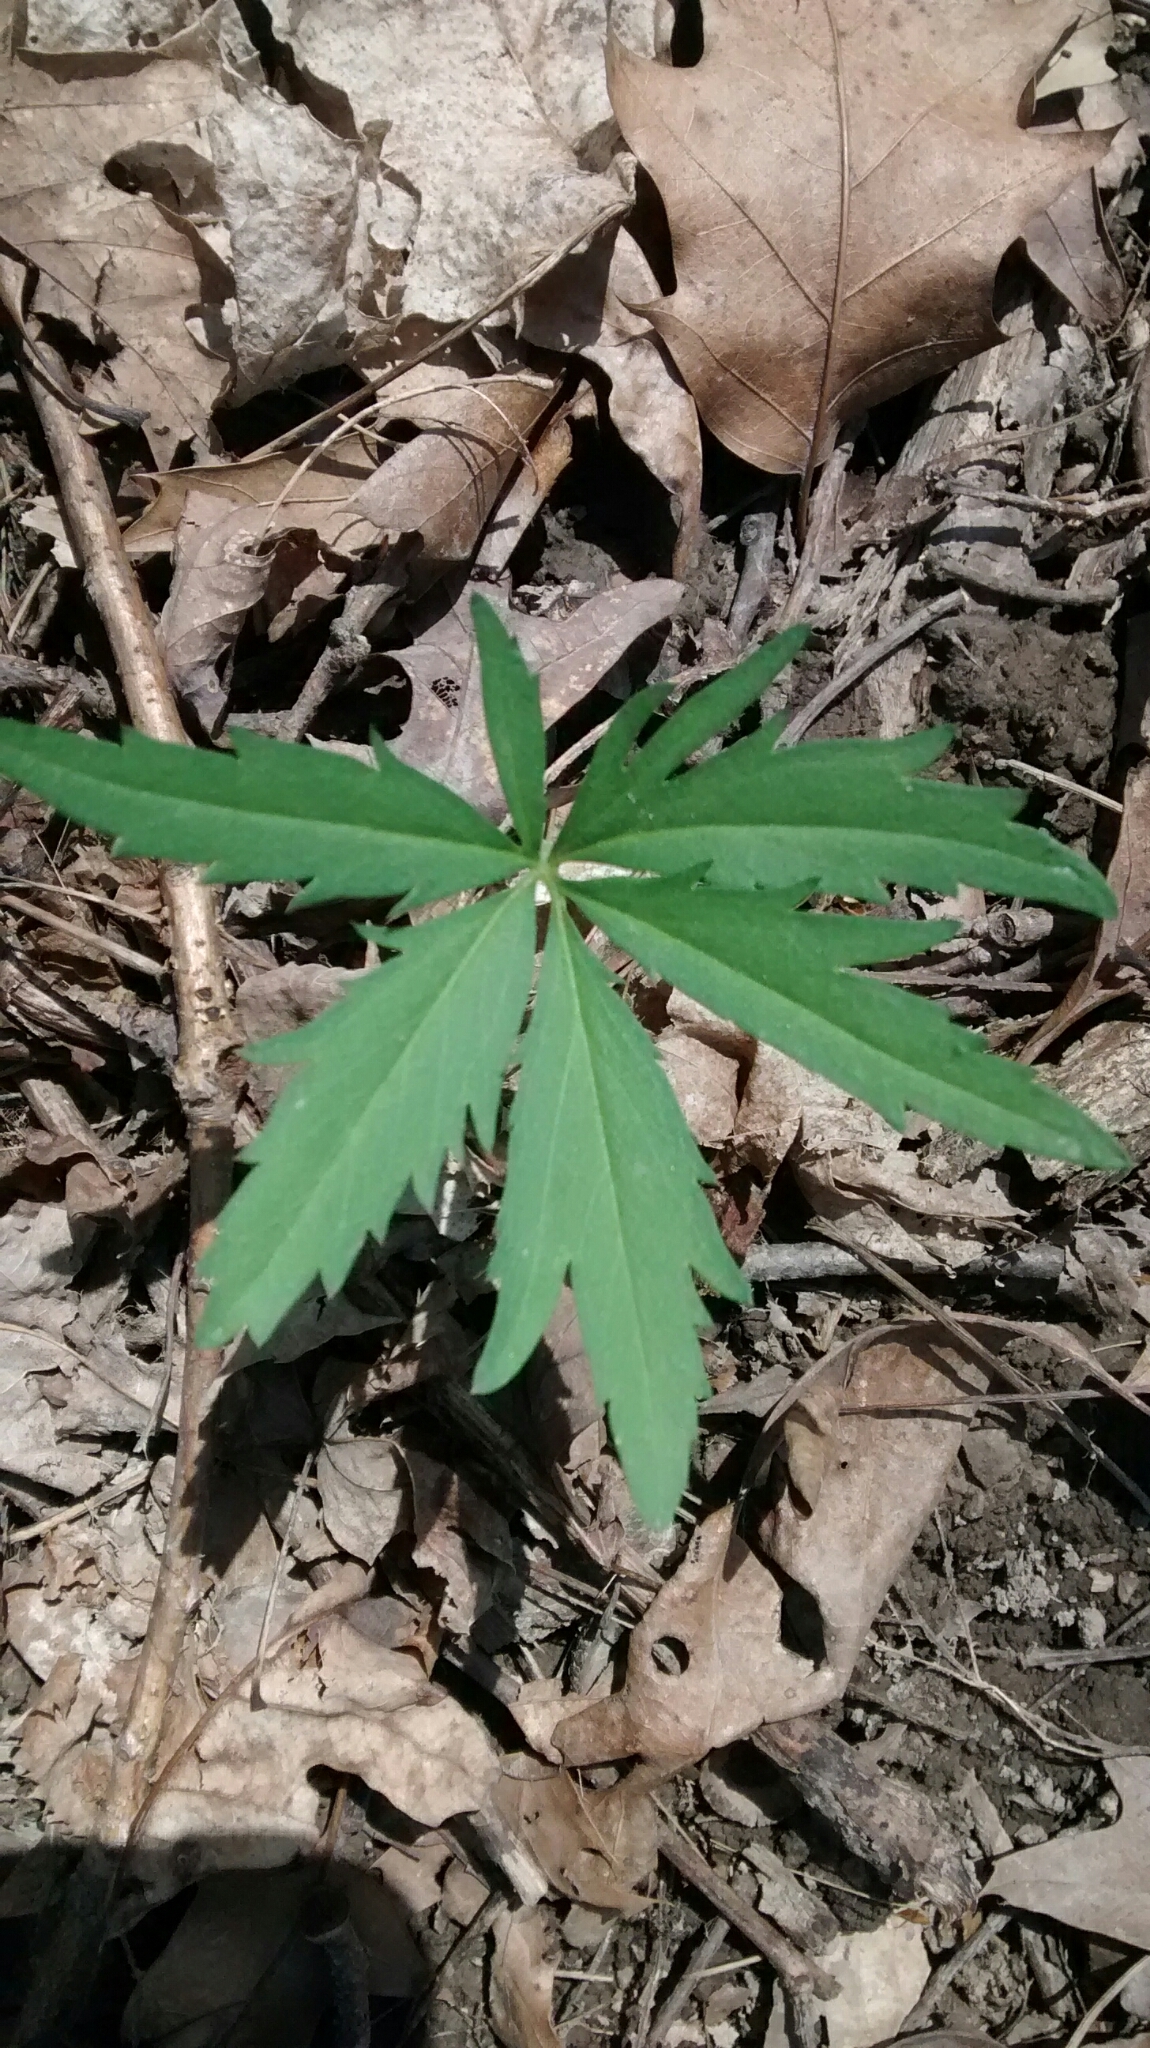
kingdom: Plantae
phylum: Tracheophyta
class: Magnoliopsida
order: Brassicales
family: Brassicaceae
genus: Cardamine
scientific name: Cardamine concatenata
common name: Cut-leaf toothcup
